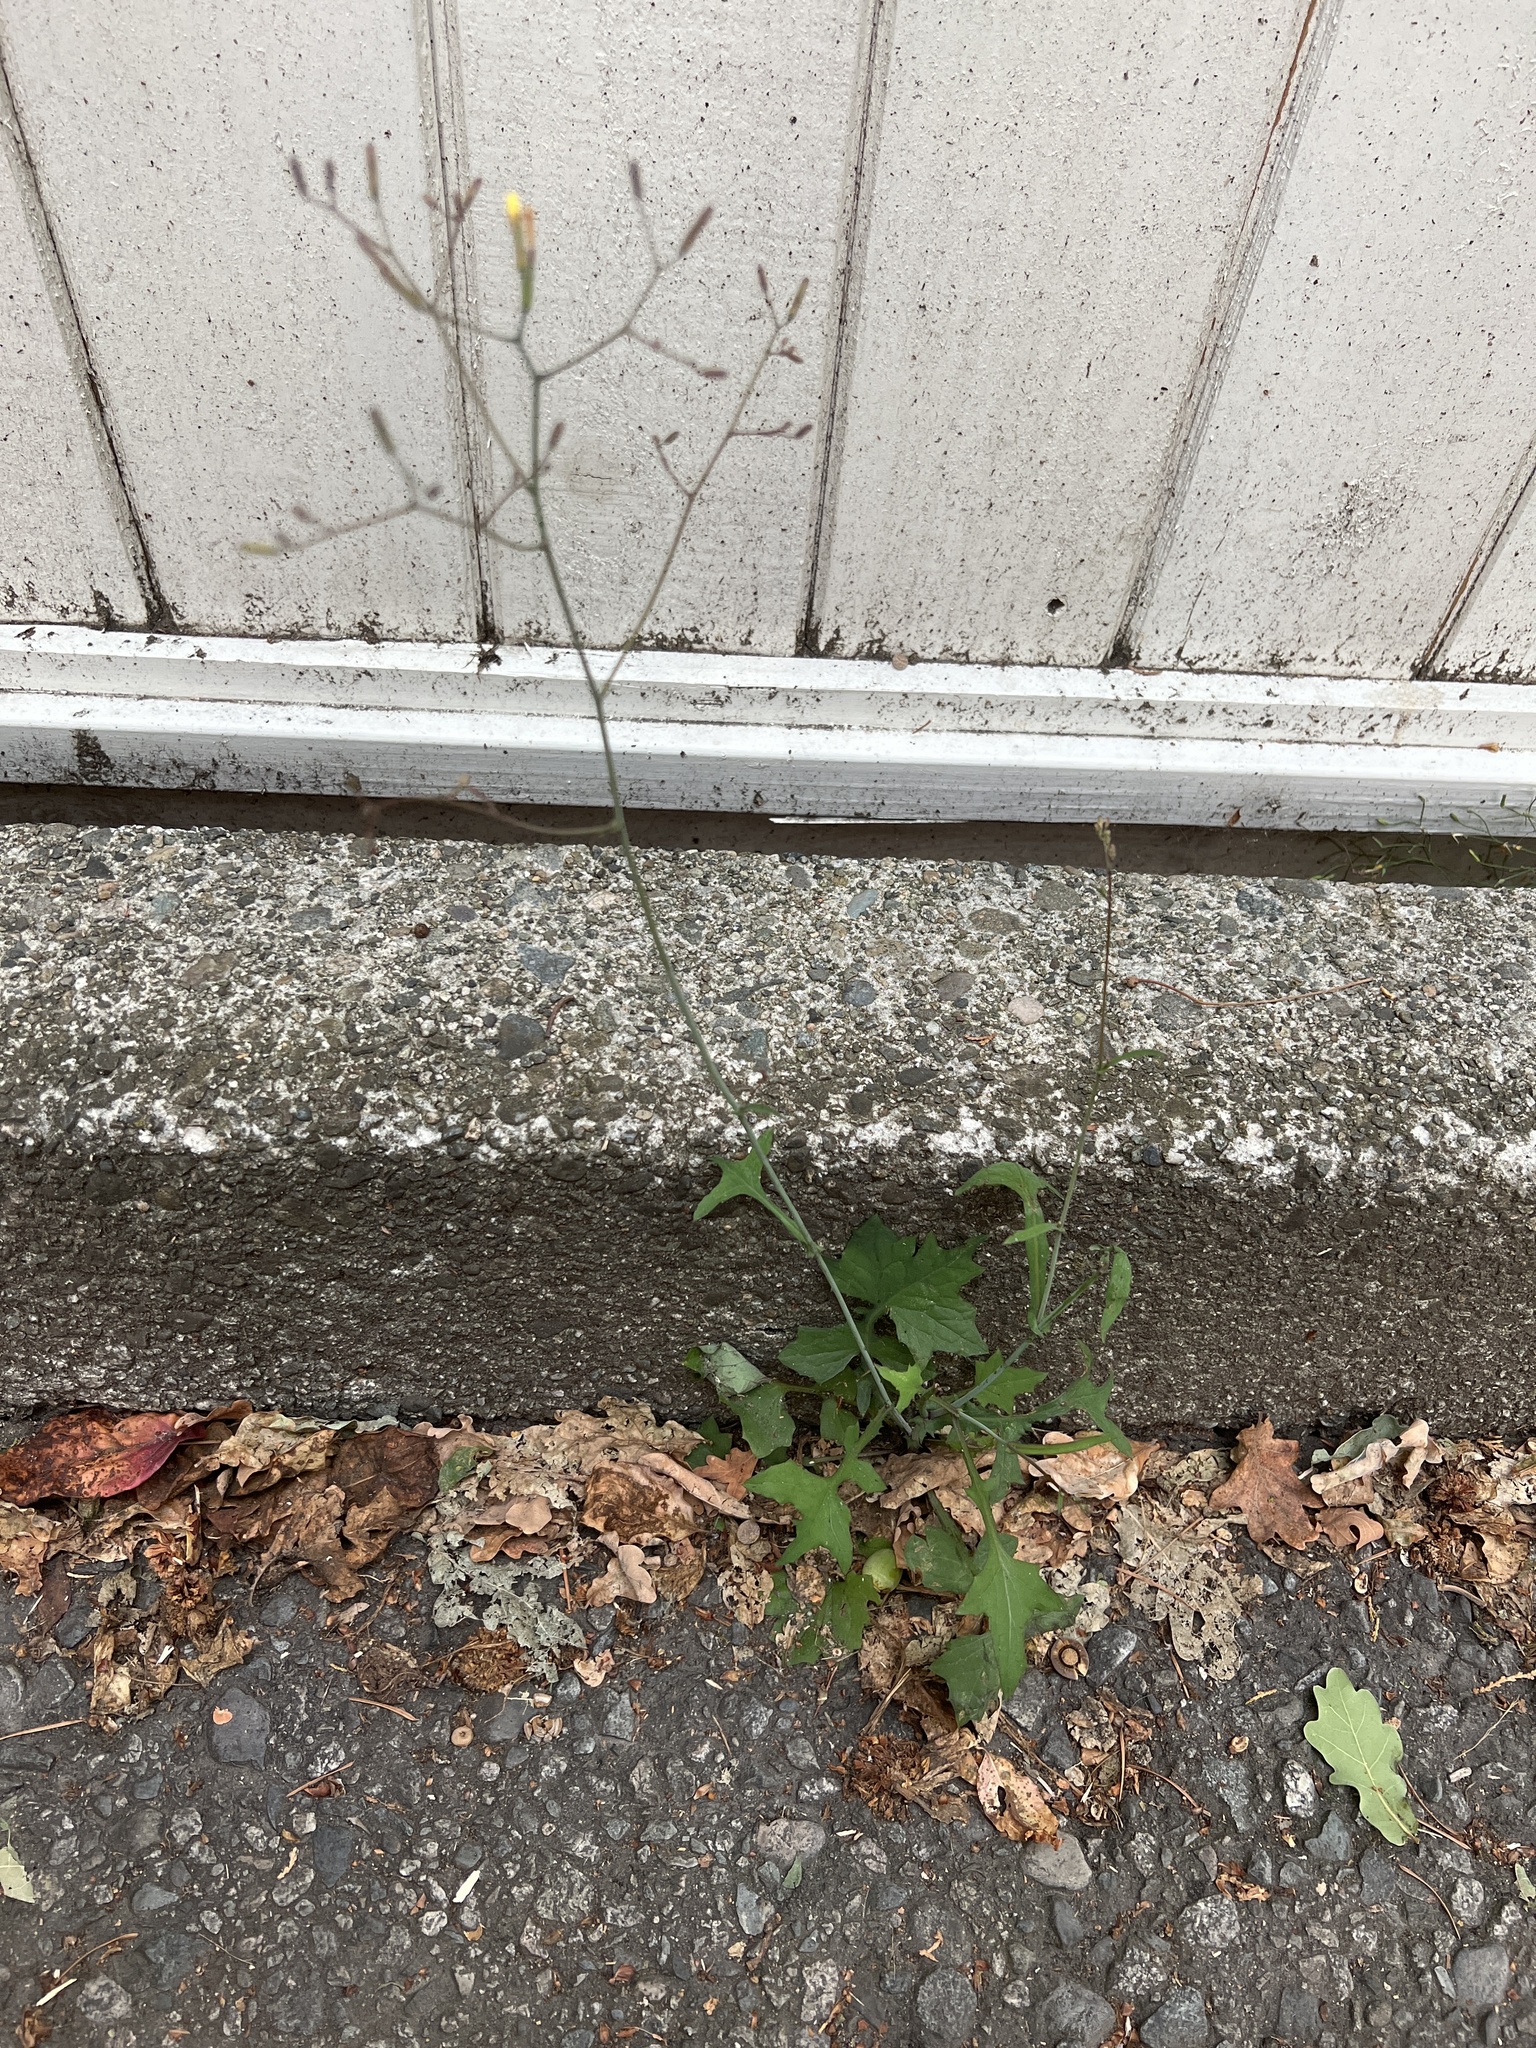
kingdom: Plantae
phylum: Tracheophyta
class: Magnoliopsida
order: Asterales
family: Asteraceae
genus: Mycelis
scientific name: Mycelis muralis
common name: Wall lettuce
